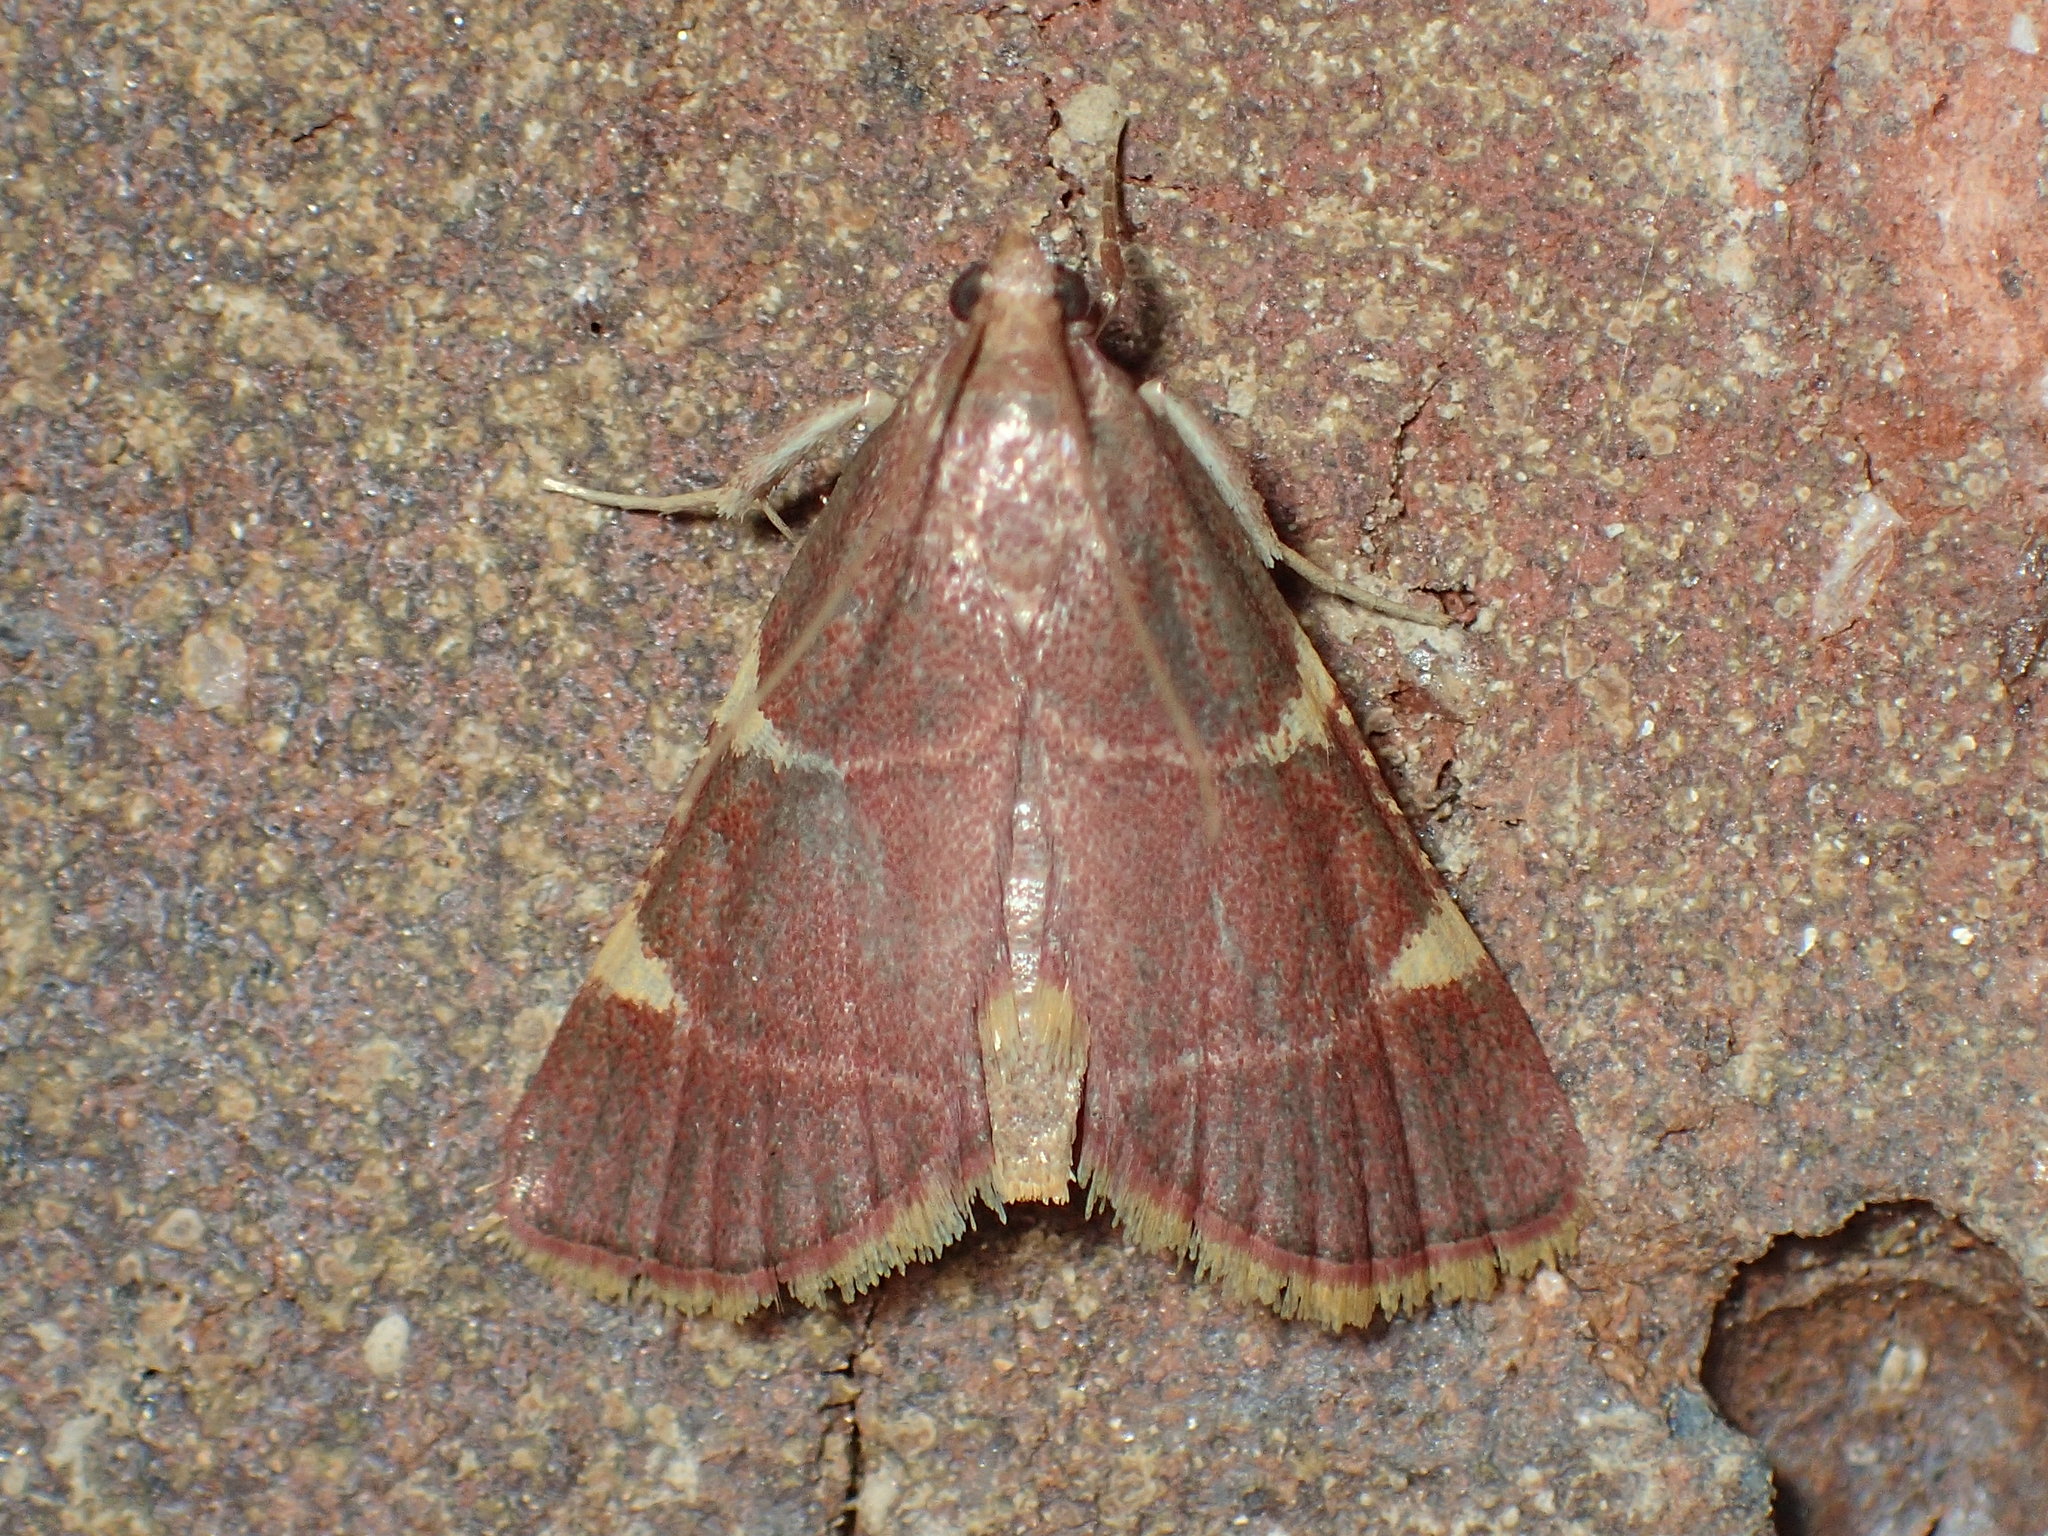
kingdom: Animalia
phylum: Arthropoda
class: Insecta
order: Lepidoptera
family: Pyralidae
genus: Hypsopygia
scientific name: Hypsopygia olinalis
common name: Yellow-fringed dolichomia moth
